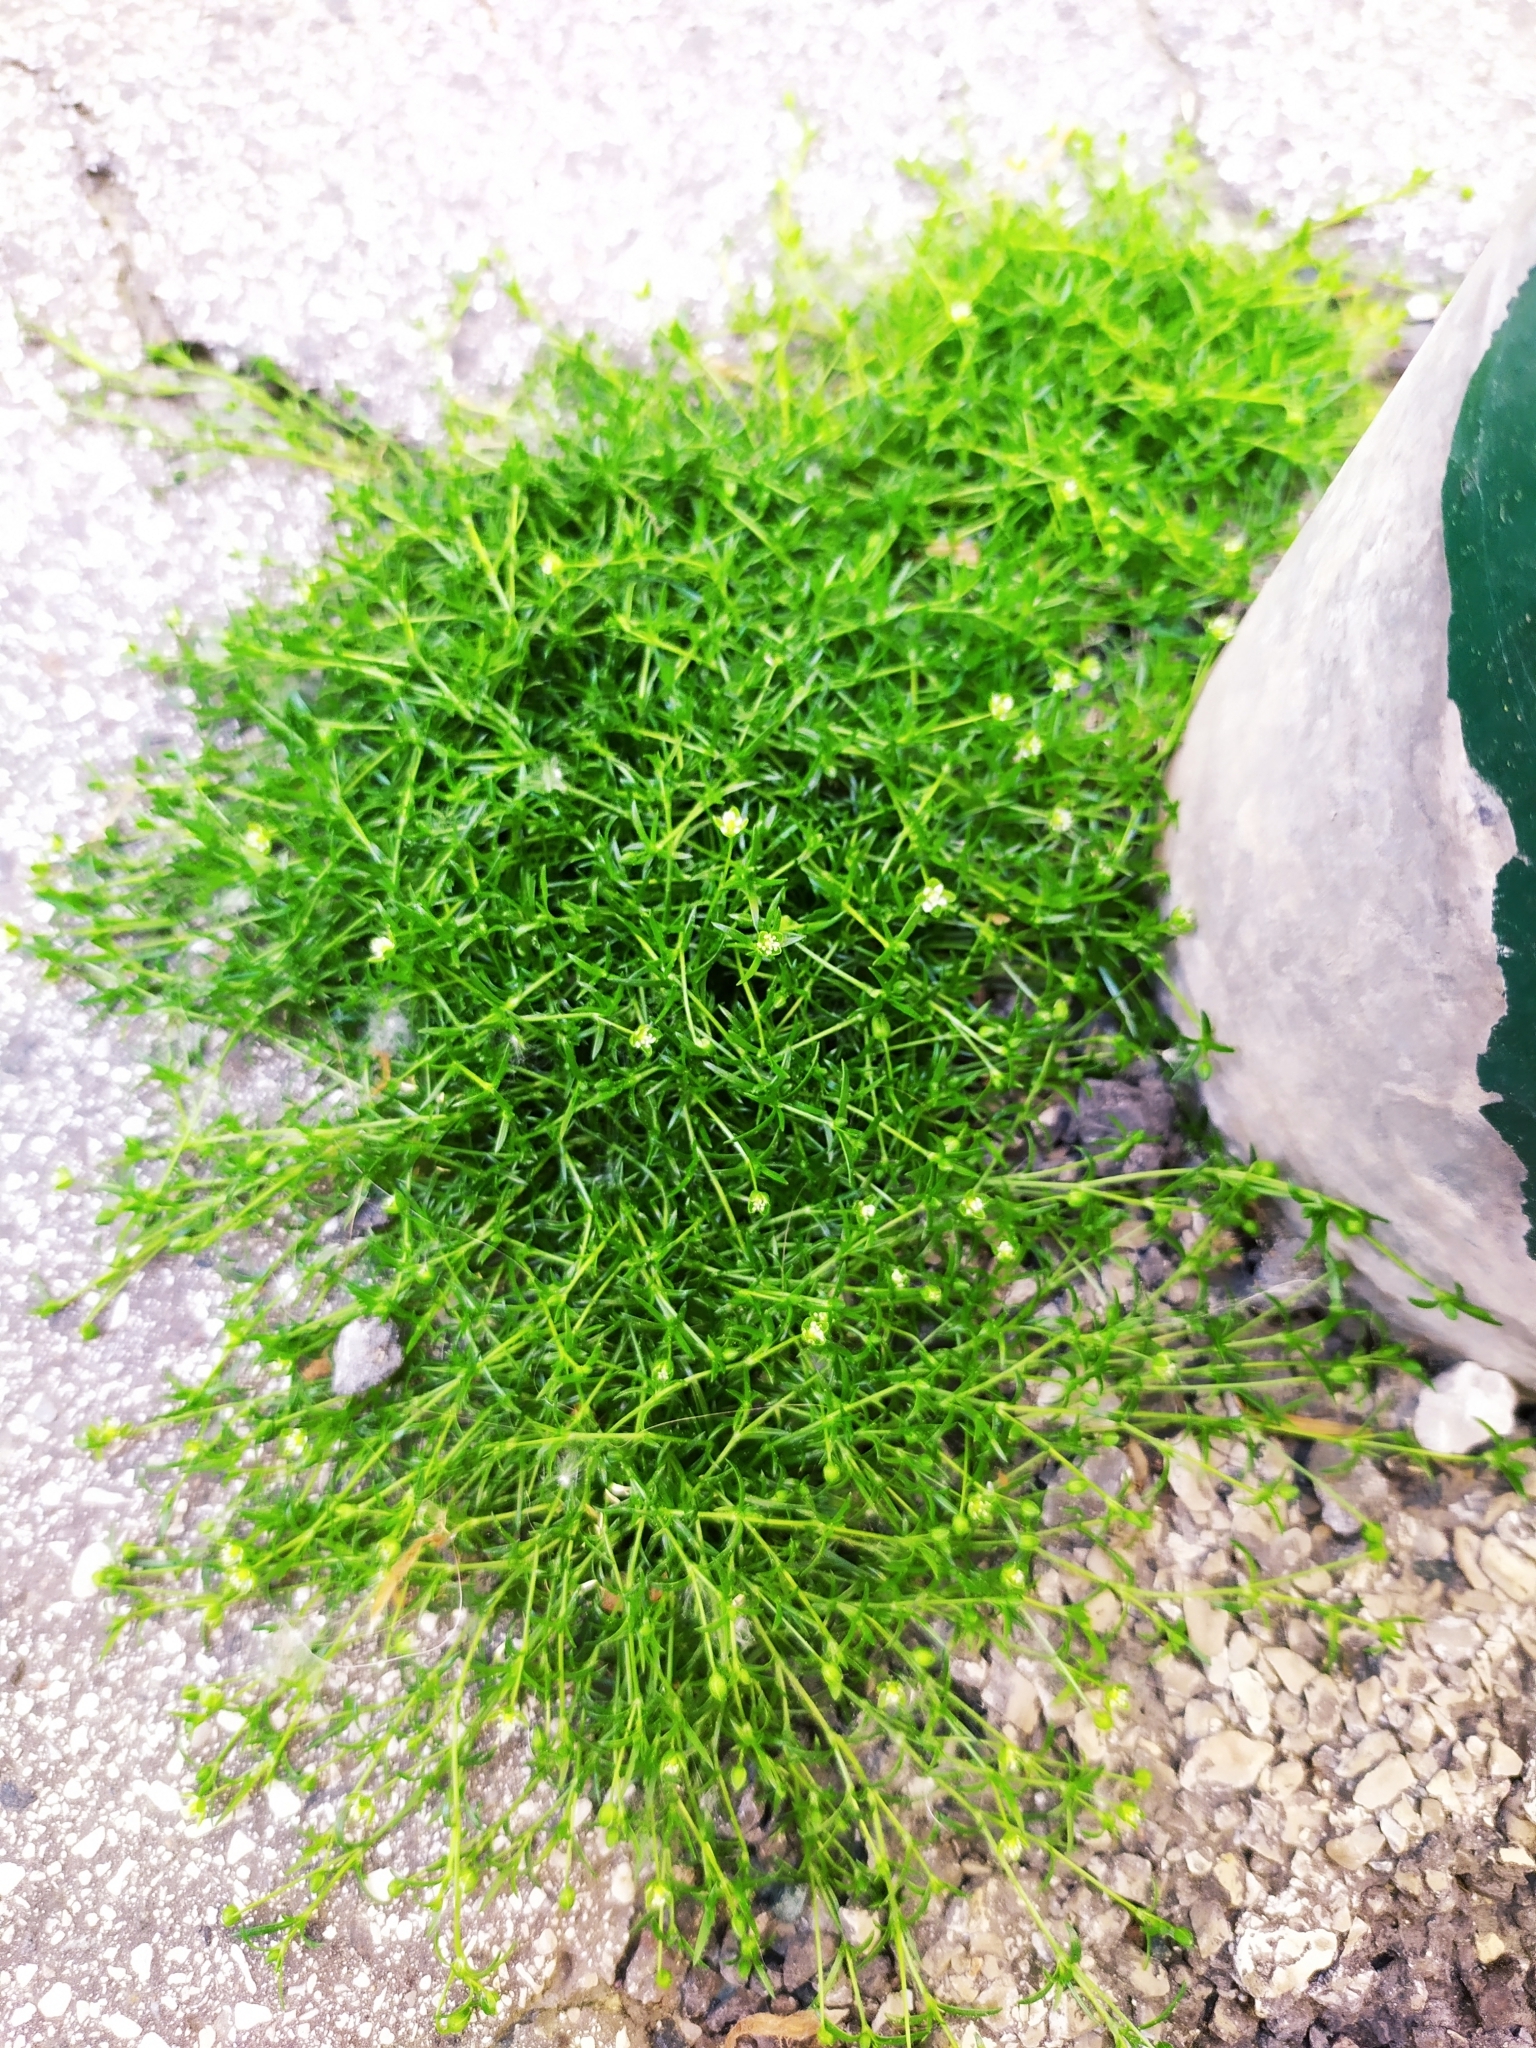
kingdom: Plantae
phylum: Tracheophyta
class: Magnoliopsida
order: Caryophyllales
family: Caryophyllaceae
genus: Sagina
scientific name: Sagina procumbens
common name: Procumbent pearlwort
